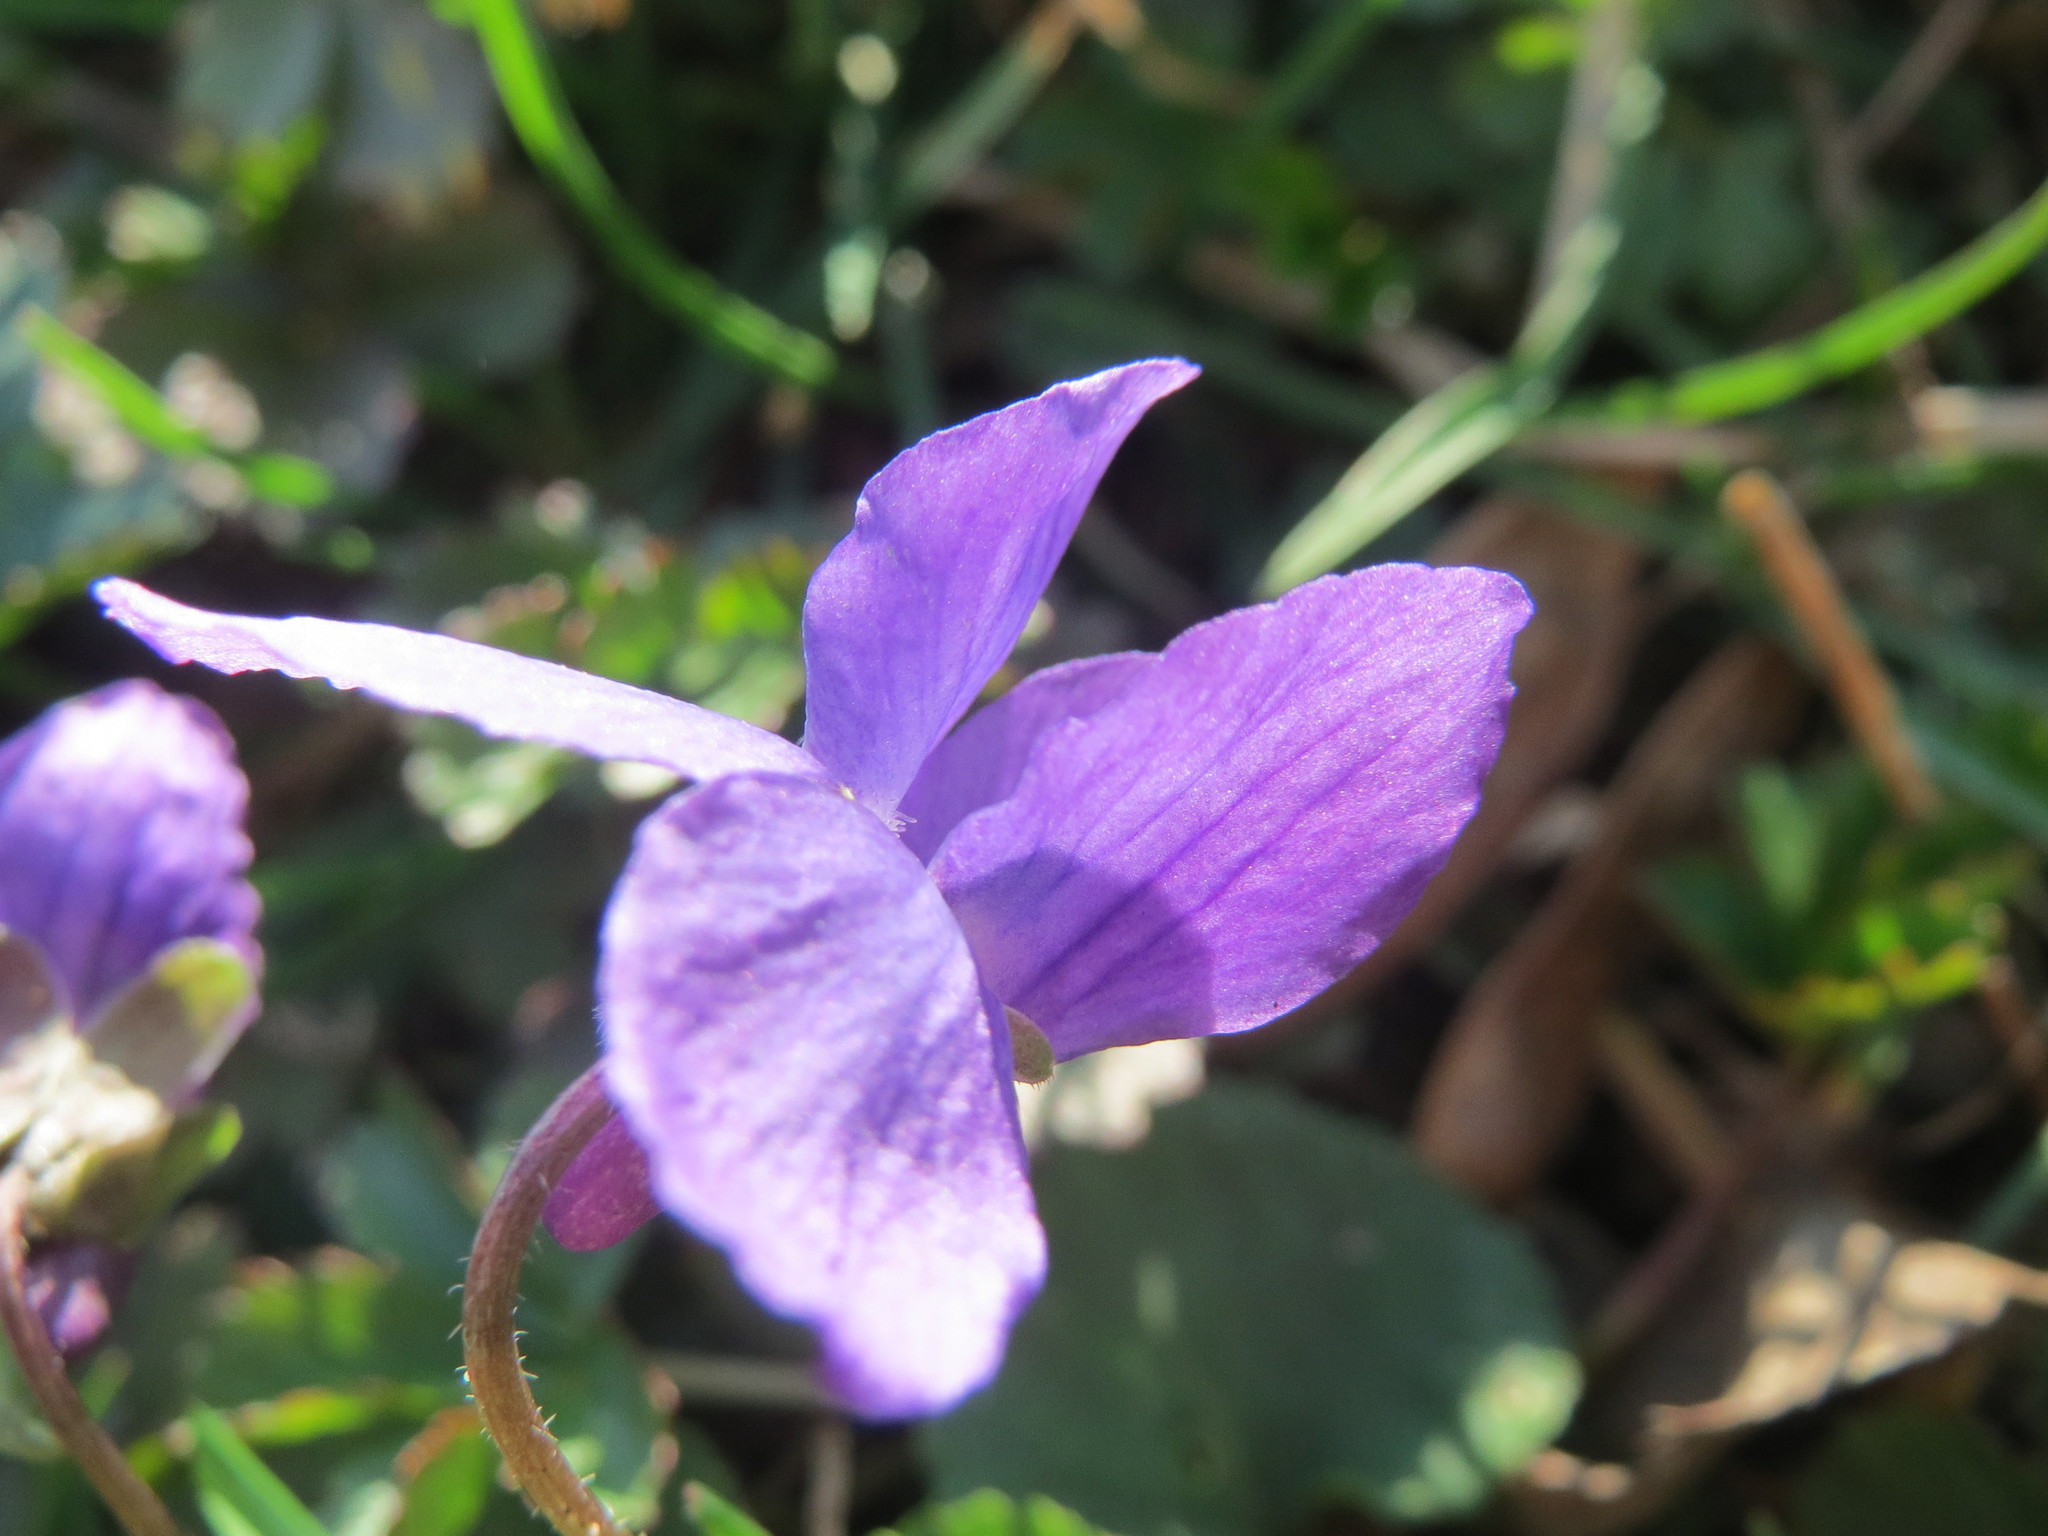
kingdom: Plantae
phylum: Tracheophyta
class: Magnoliopsida
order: Malpighiales
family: Violaceae
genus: Viola
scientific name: Viola odorata
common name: Sweet violet
